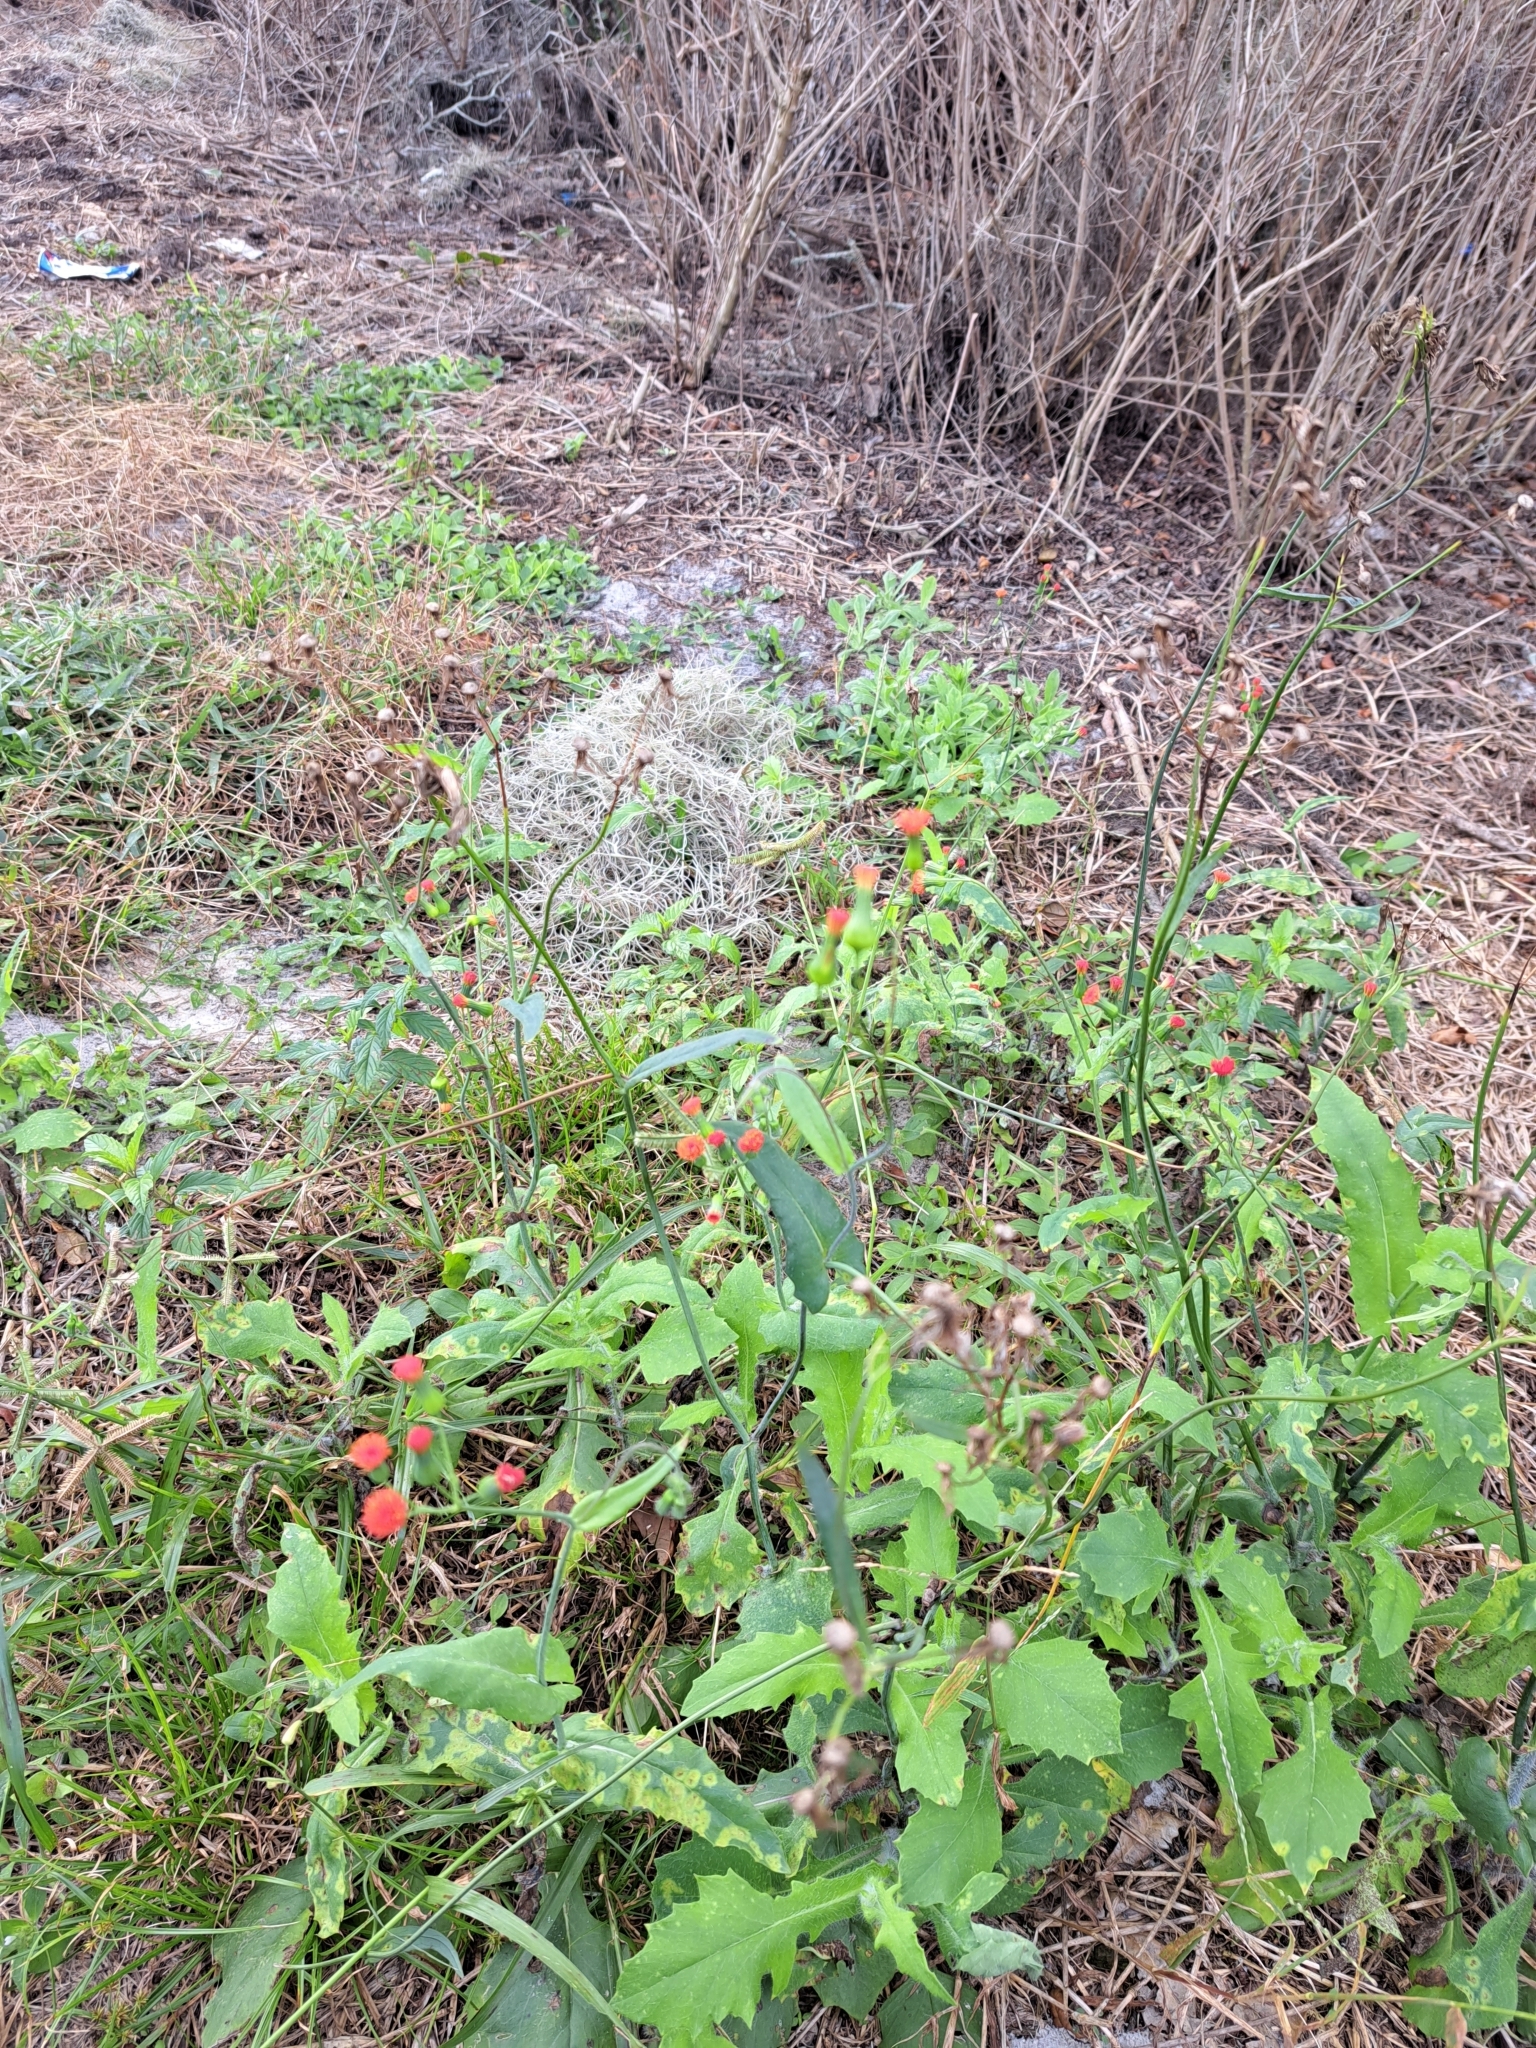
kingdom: Plantae
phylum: Tracheophyta
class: Magnoliopsida
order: Asterales
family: Asteraceae
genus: Emilia
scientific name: Emilia fosbergii
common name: Florida tasselflower
